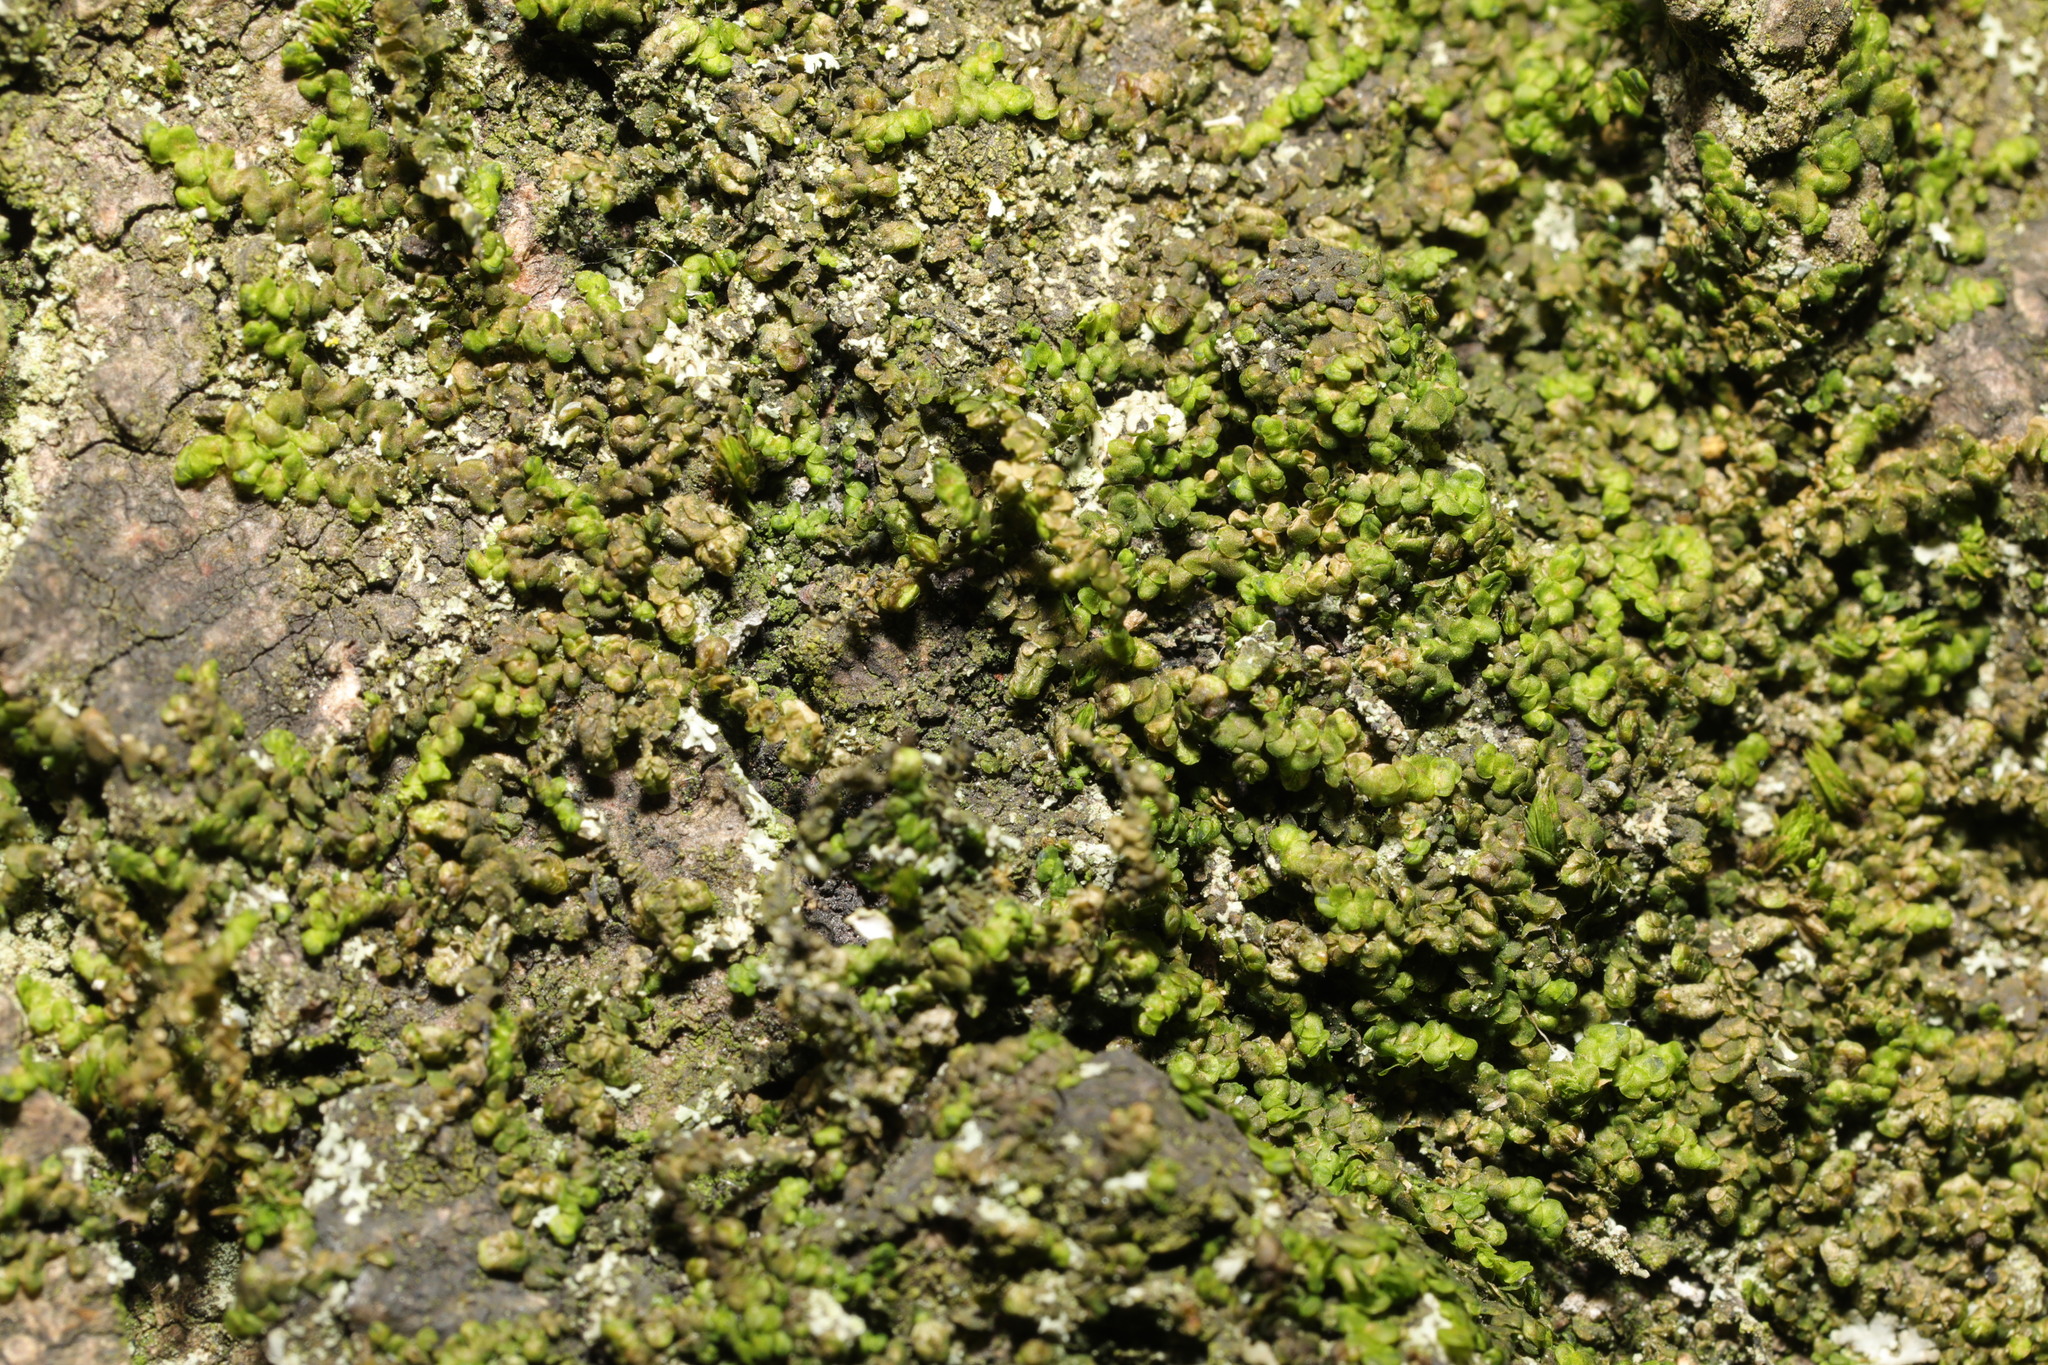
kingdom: Plantae
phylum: Marchantiophyta
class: Jungermanniopsida
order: Porellales
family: Frullaniaceae
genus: Frullania
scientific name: Frullania dilatata
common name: Dilated scalewort
